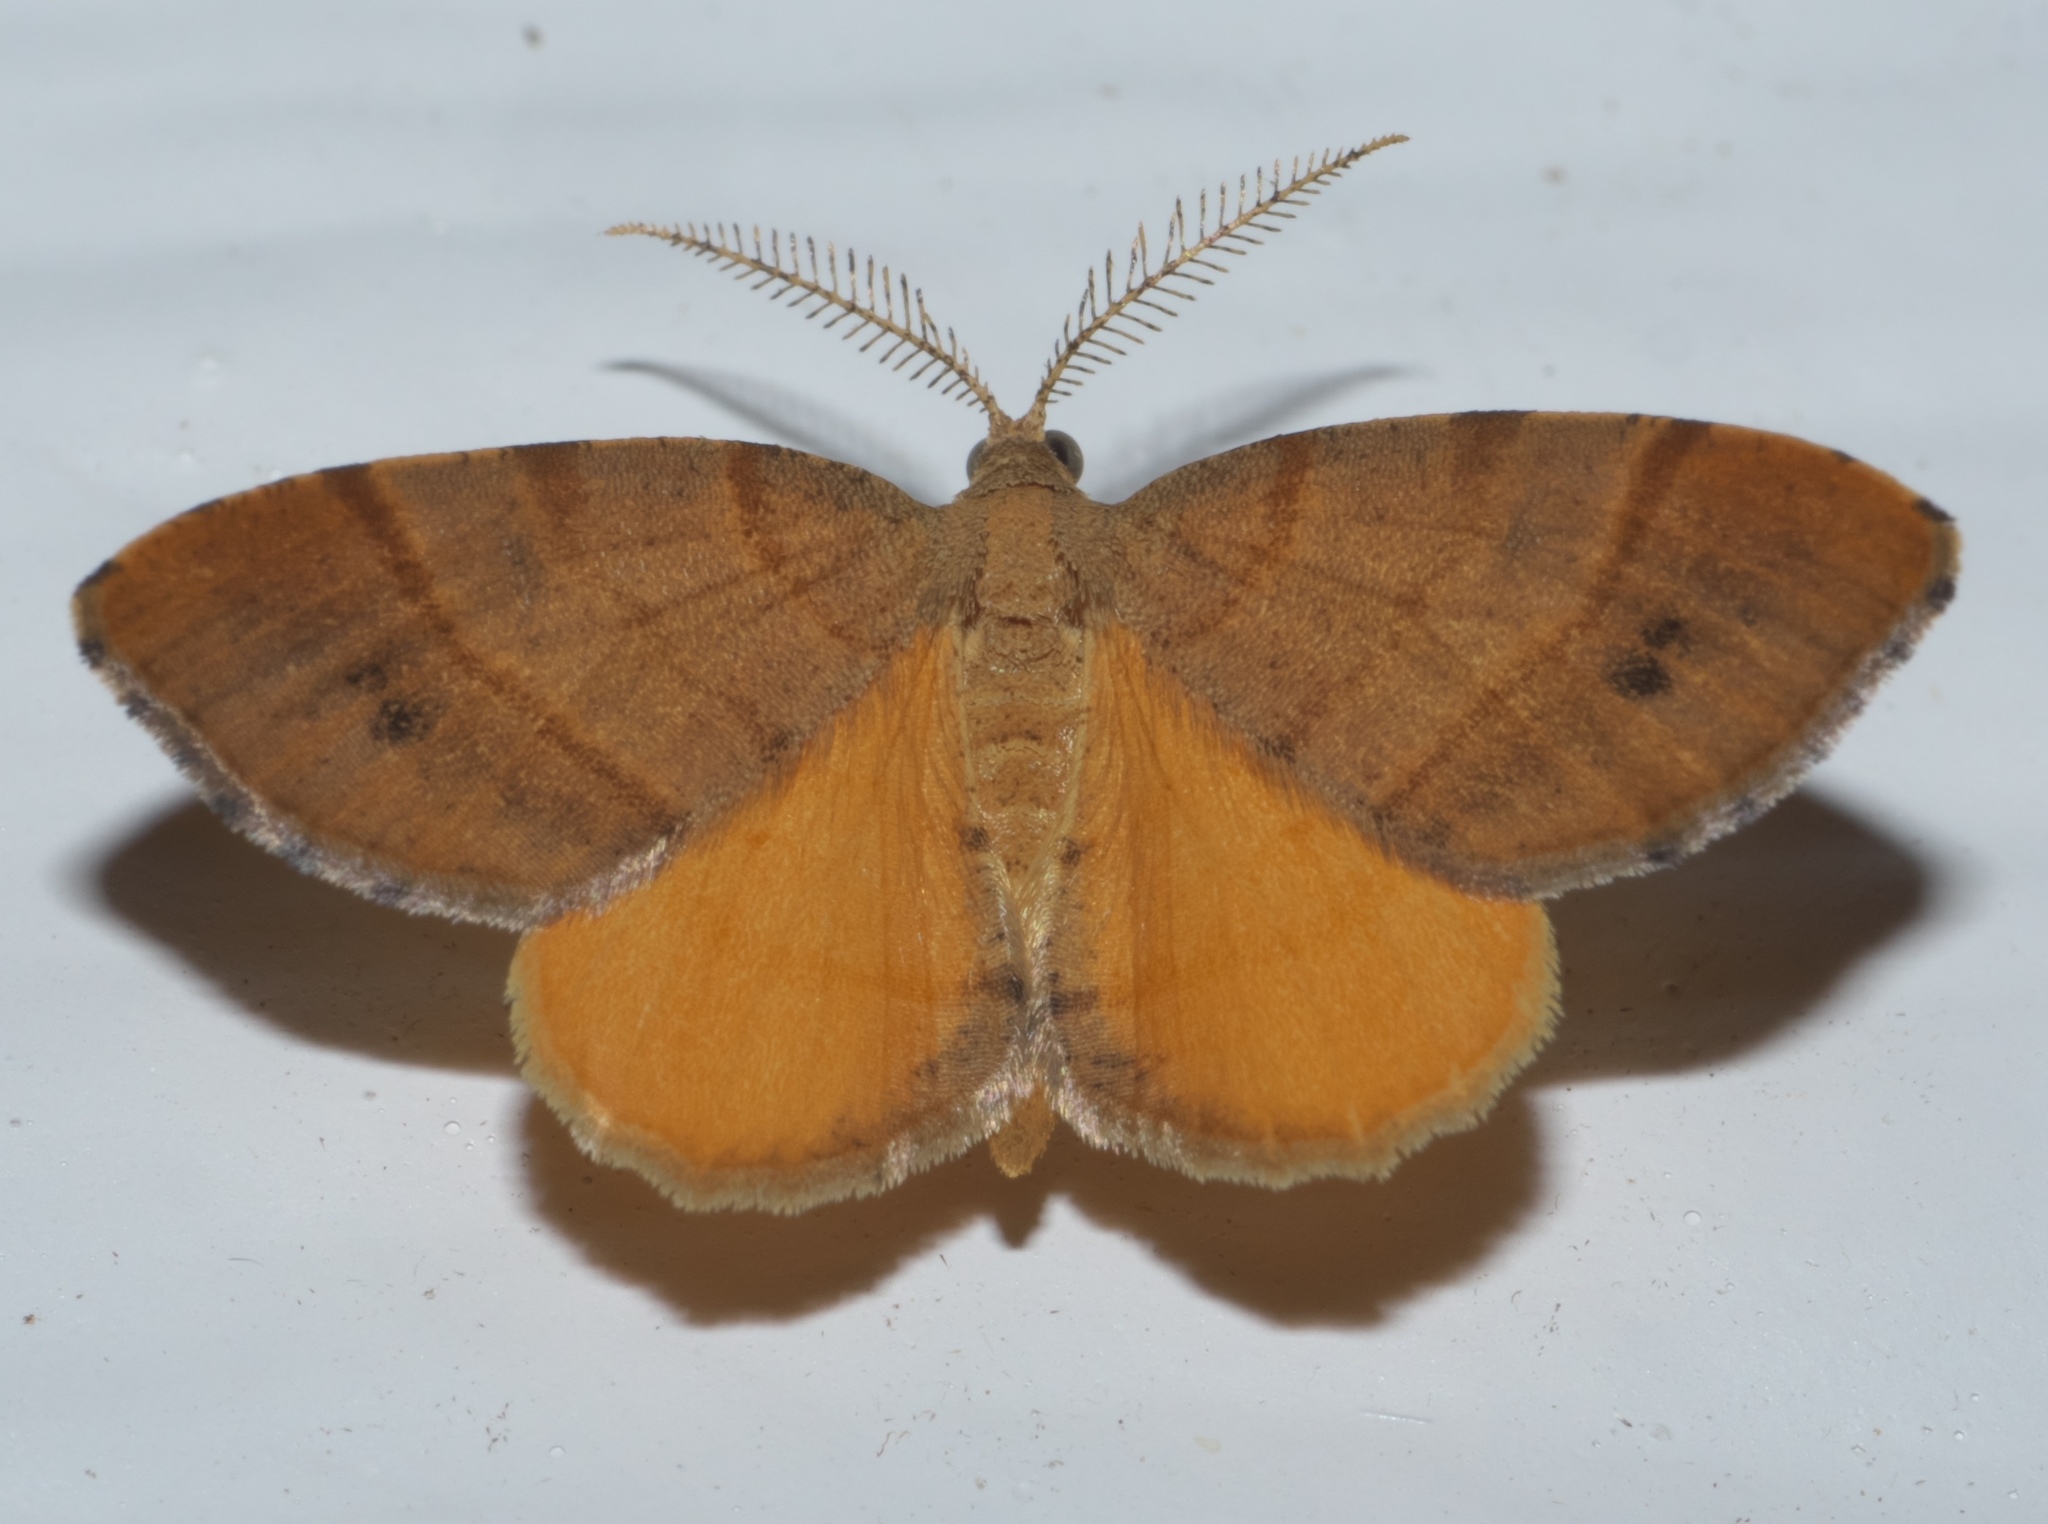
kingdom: Animalia
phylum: Arthropoda
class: Insecta
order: Lepidoptera
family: Geometridae
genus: Mellilla
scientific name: Mellilla xanthometata
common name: Orange wing moth
